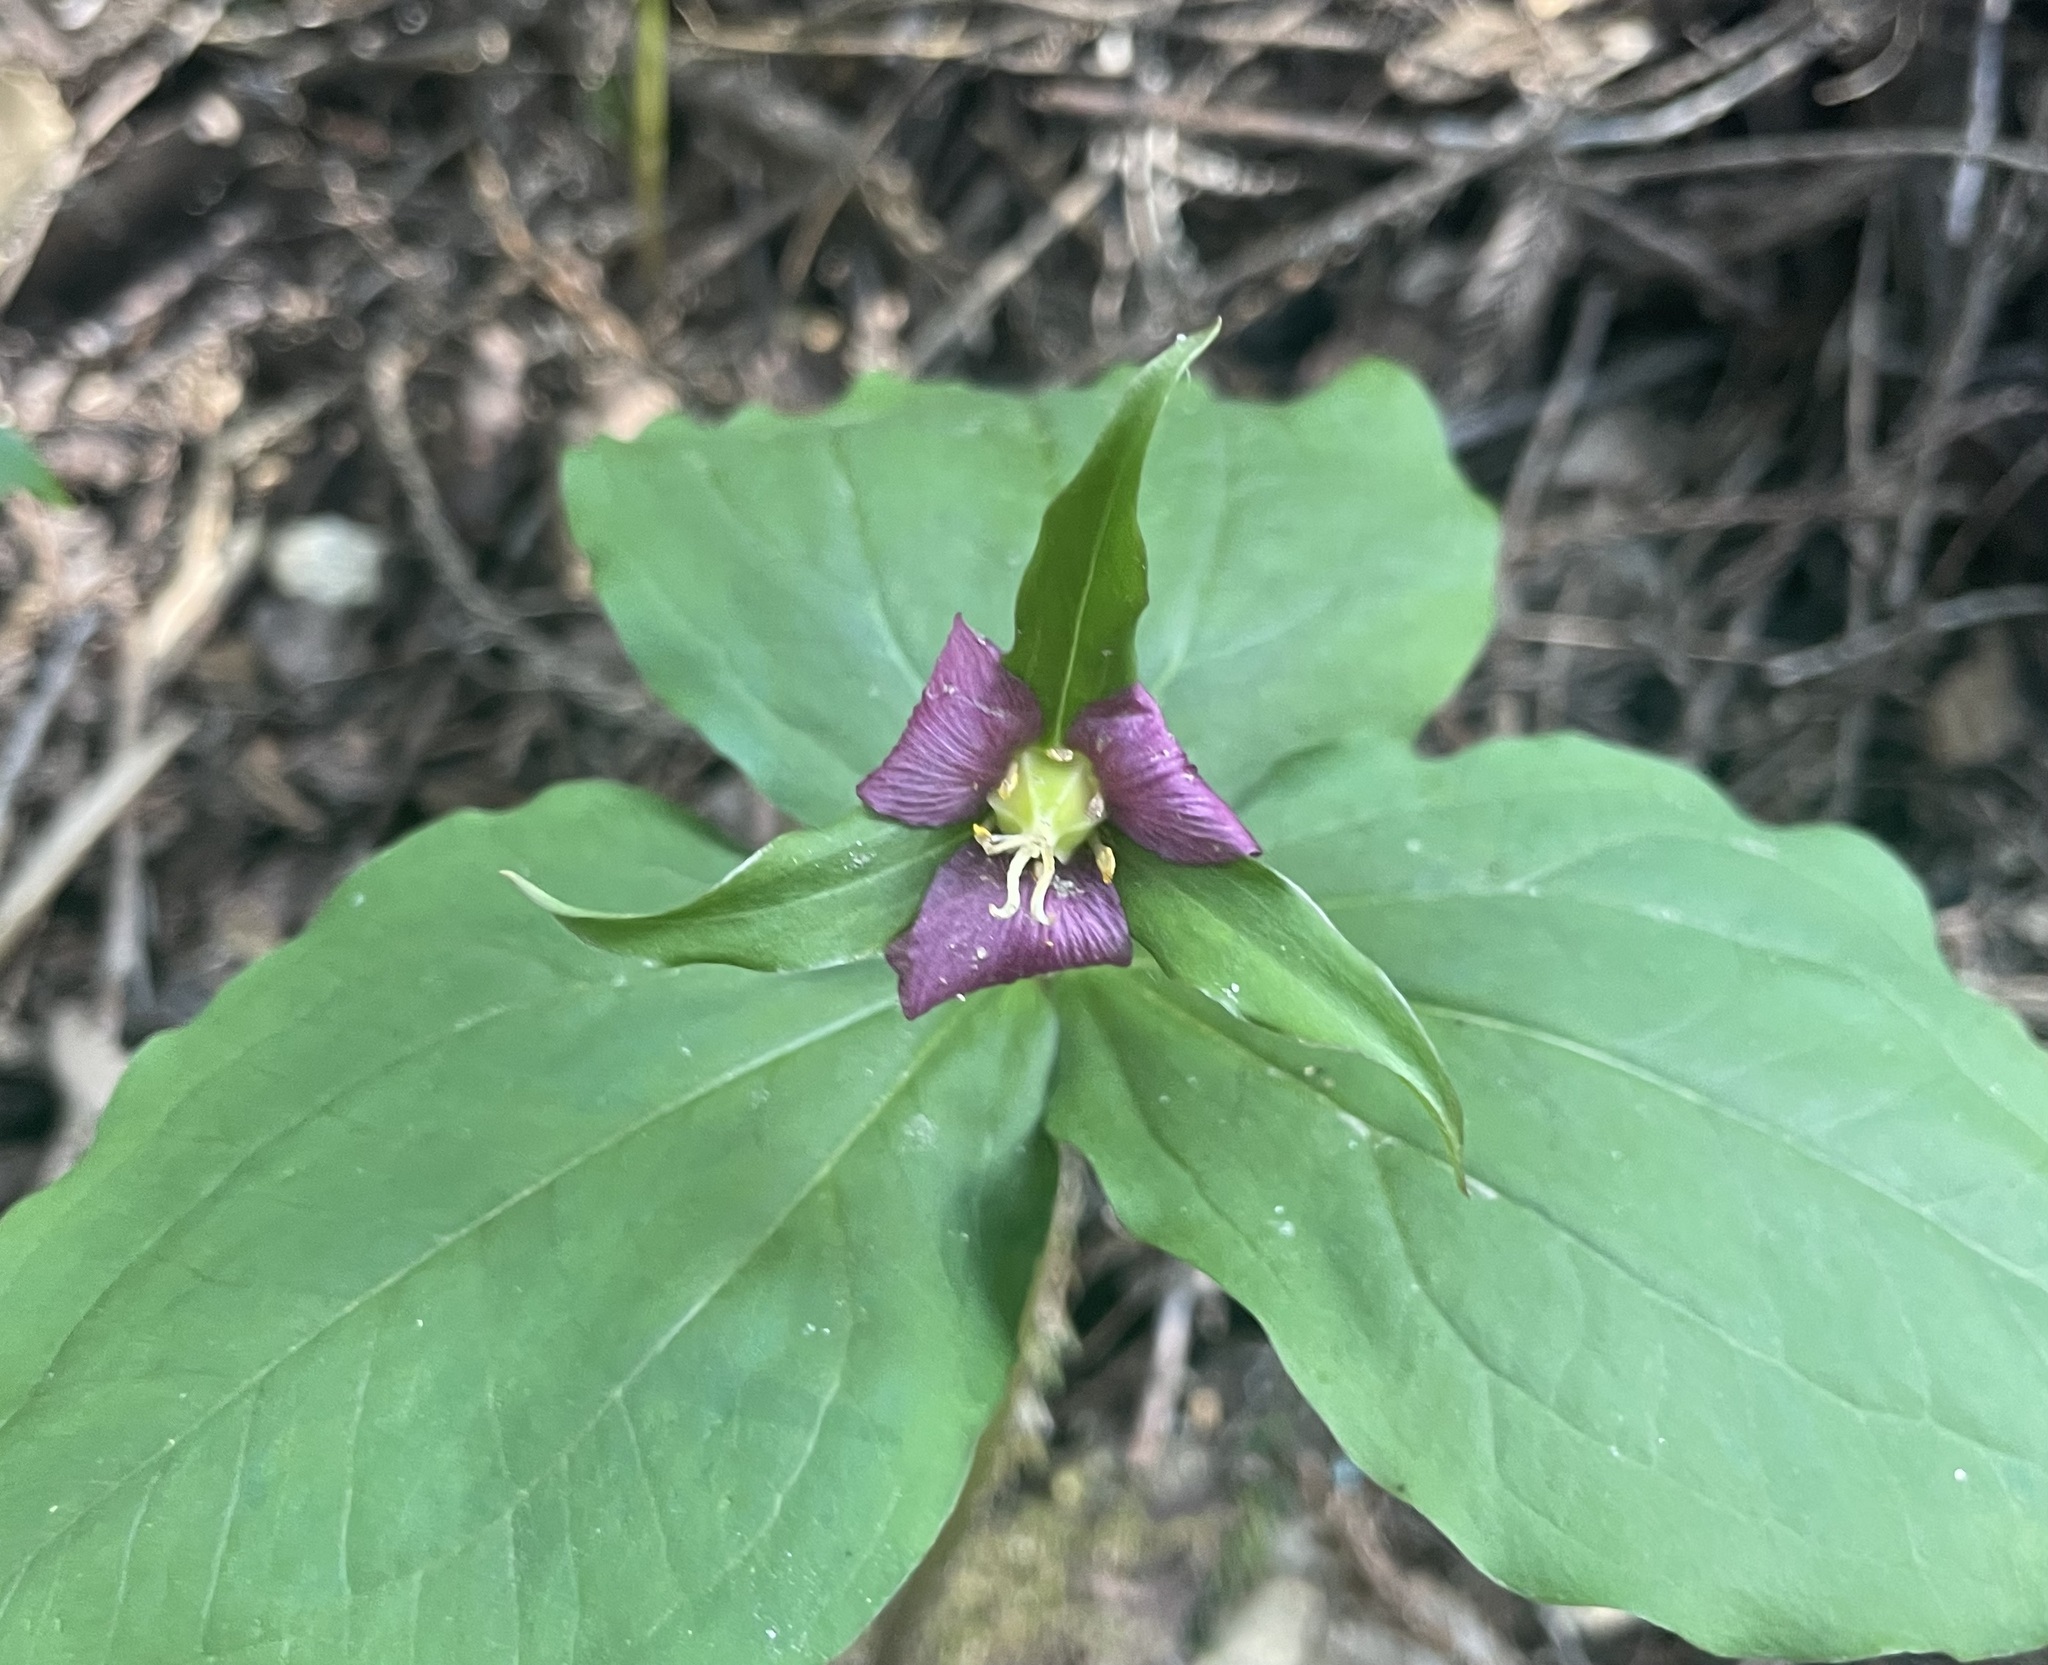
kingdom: Plantae
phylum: Tracheophyta
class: Liliopsida
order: Liliales
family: Melanthiaceae
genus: Trillium
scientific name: Trillium ovatum
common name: Pacific trillium
